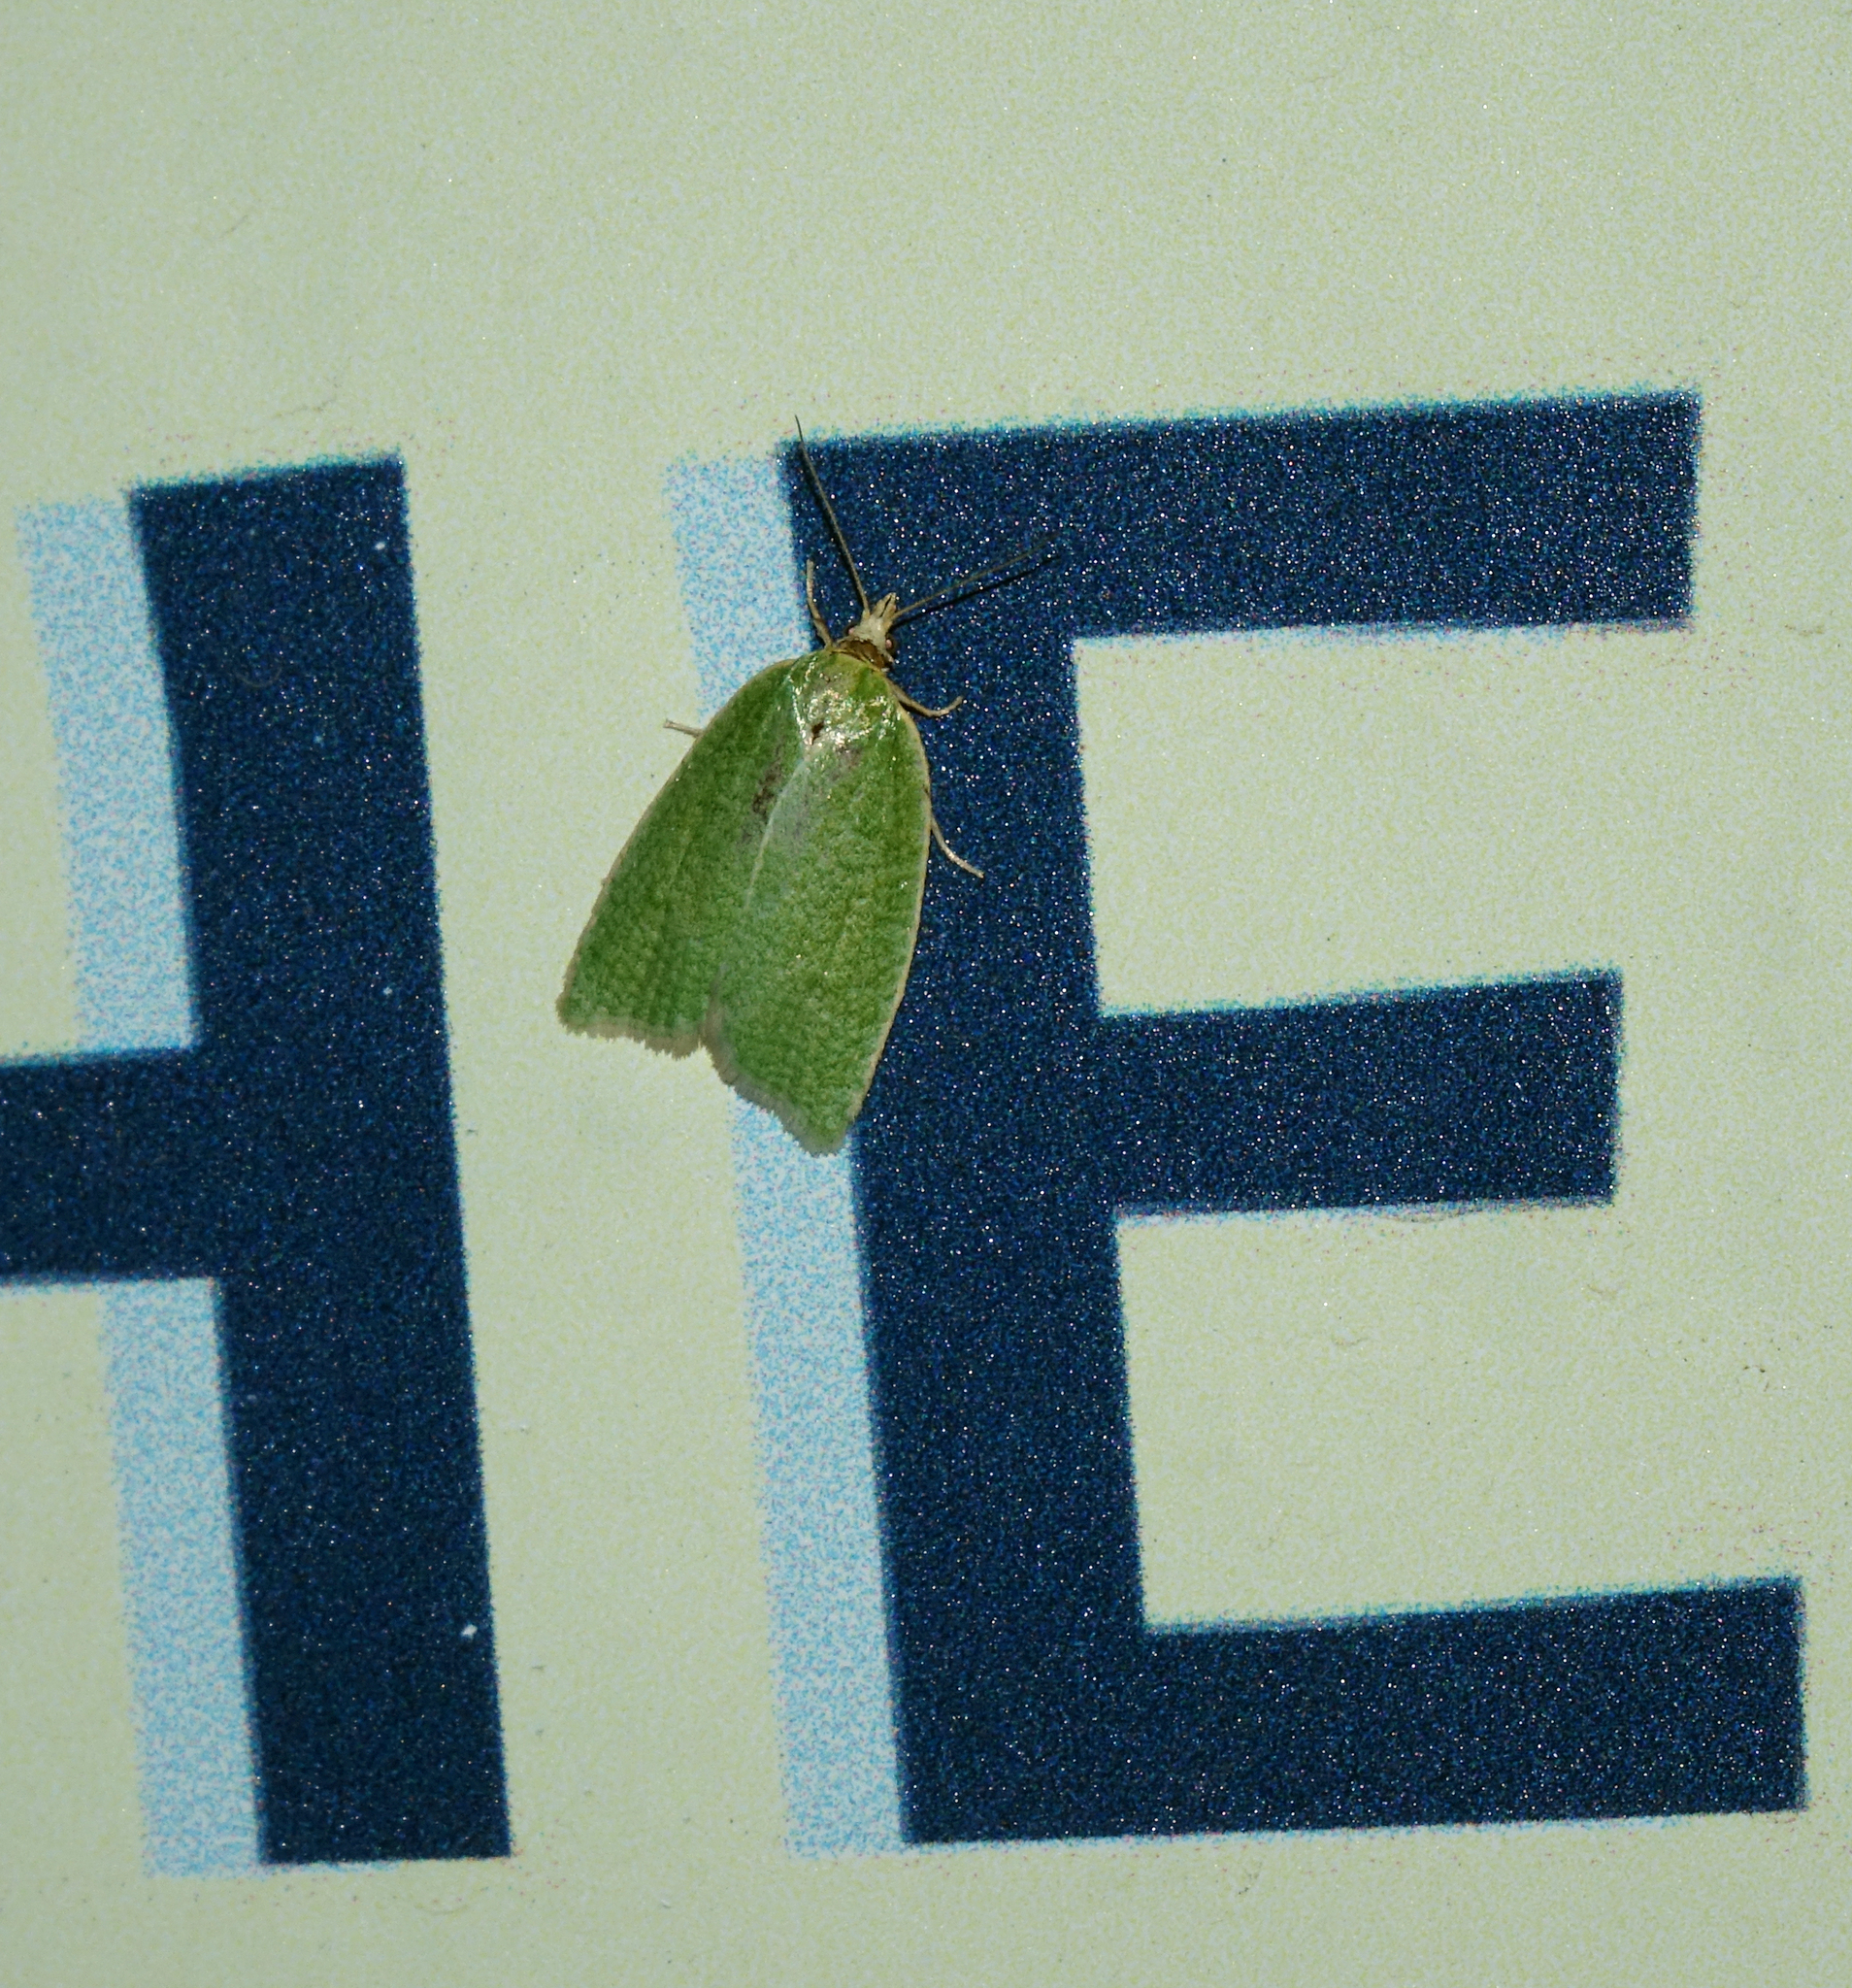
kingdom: Animalia
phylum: Arthropoda
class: Insecta
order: Lepidoptera
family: Tortricidae
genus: Tortrix
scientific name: Tortrix viridana
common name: Green oak tortrix
